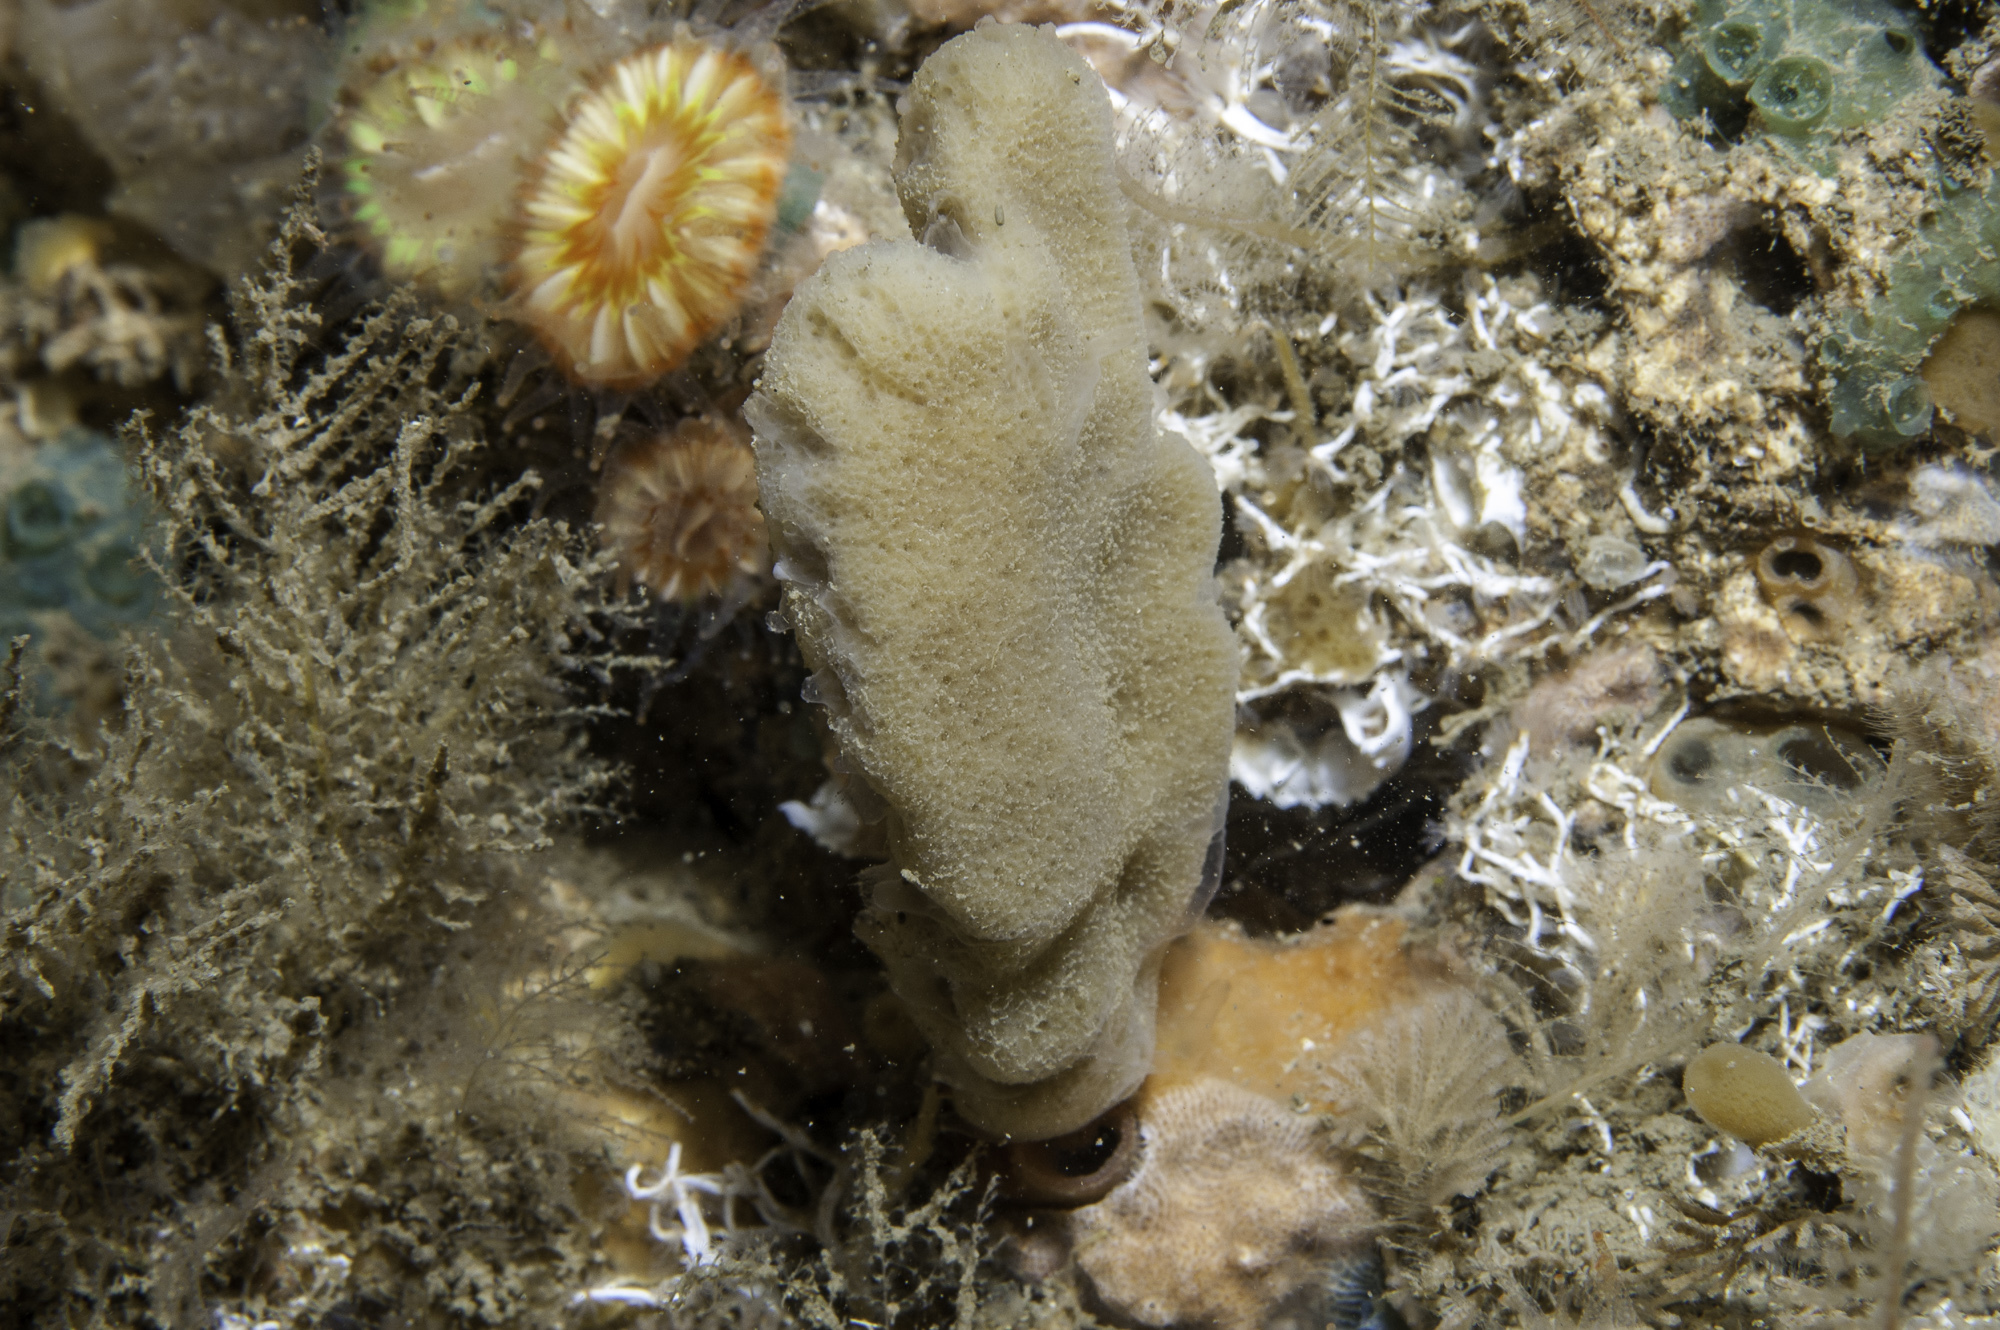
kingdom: Animalia
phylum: Porifera
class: Demospongiae
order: Dendroceratida
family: Dictyodendrillidae
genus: Spongionella
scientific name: Spongionella pulchella
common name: Gorgeous horny sponge
